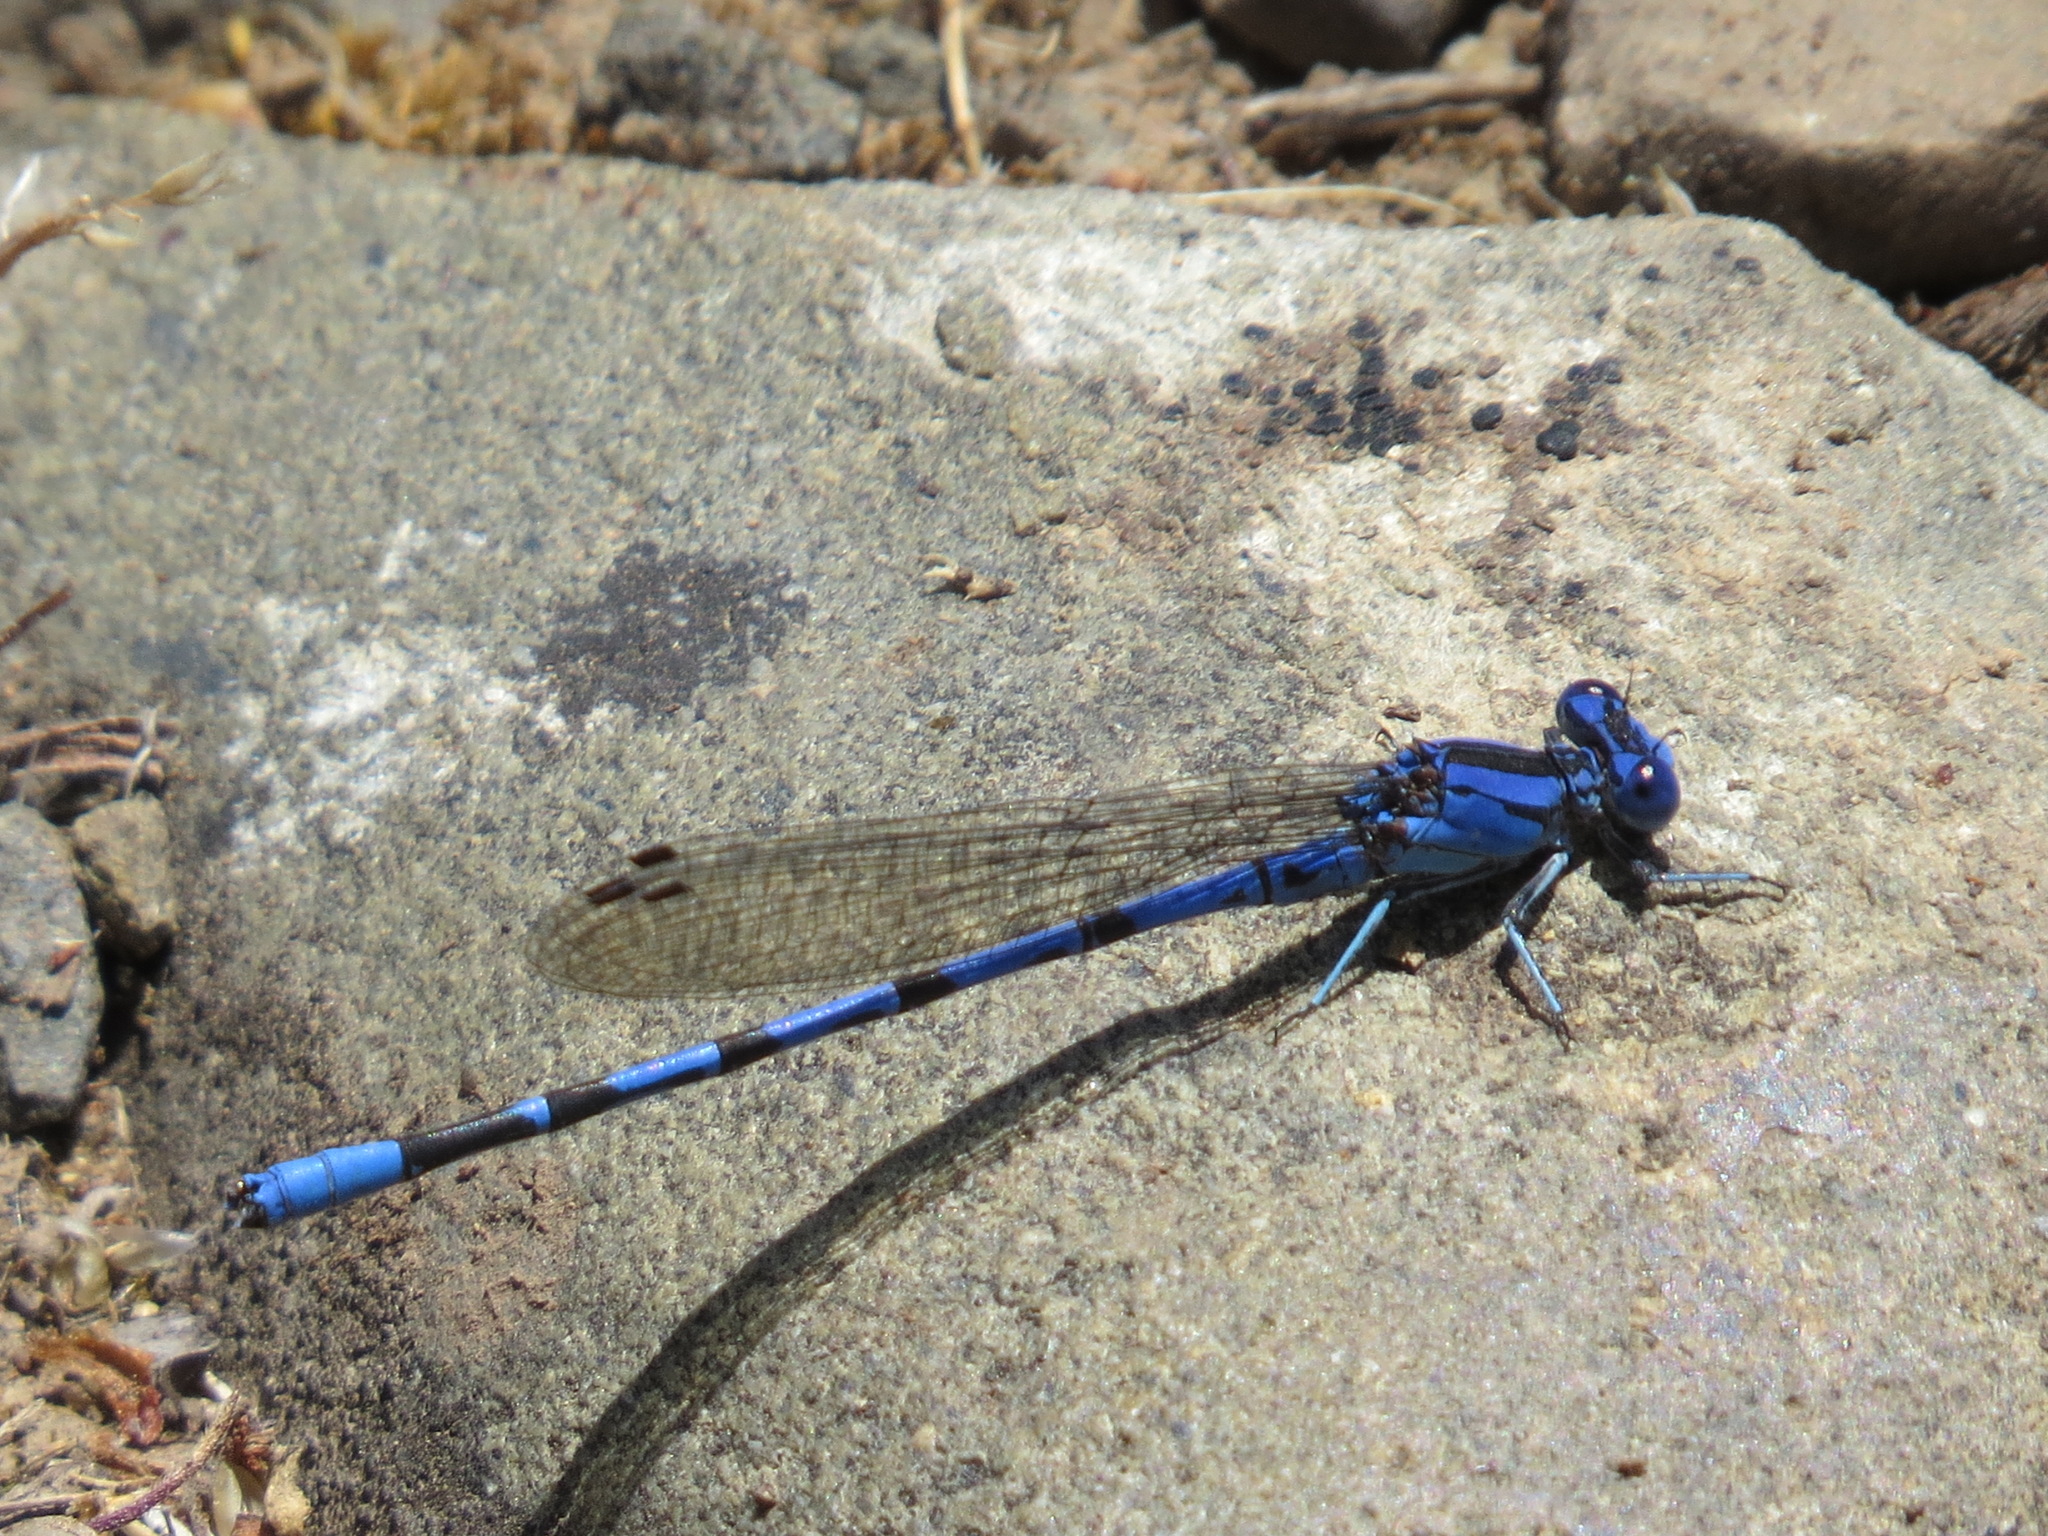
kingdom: Animalia
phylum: Arthropoda
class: Insecta
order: Odonata
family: Coenagrionidae
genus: Argia
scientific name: Argia vivida
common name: Vivid dancer
